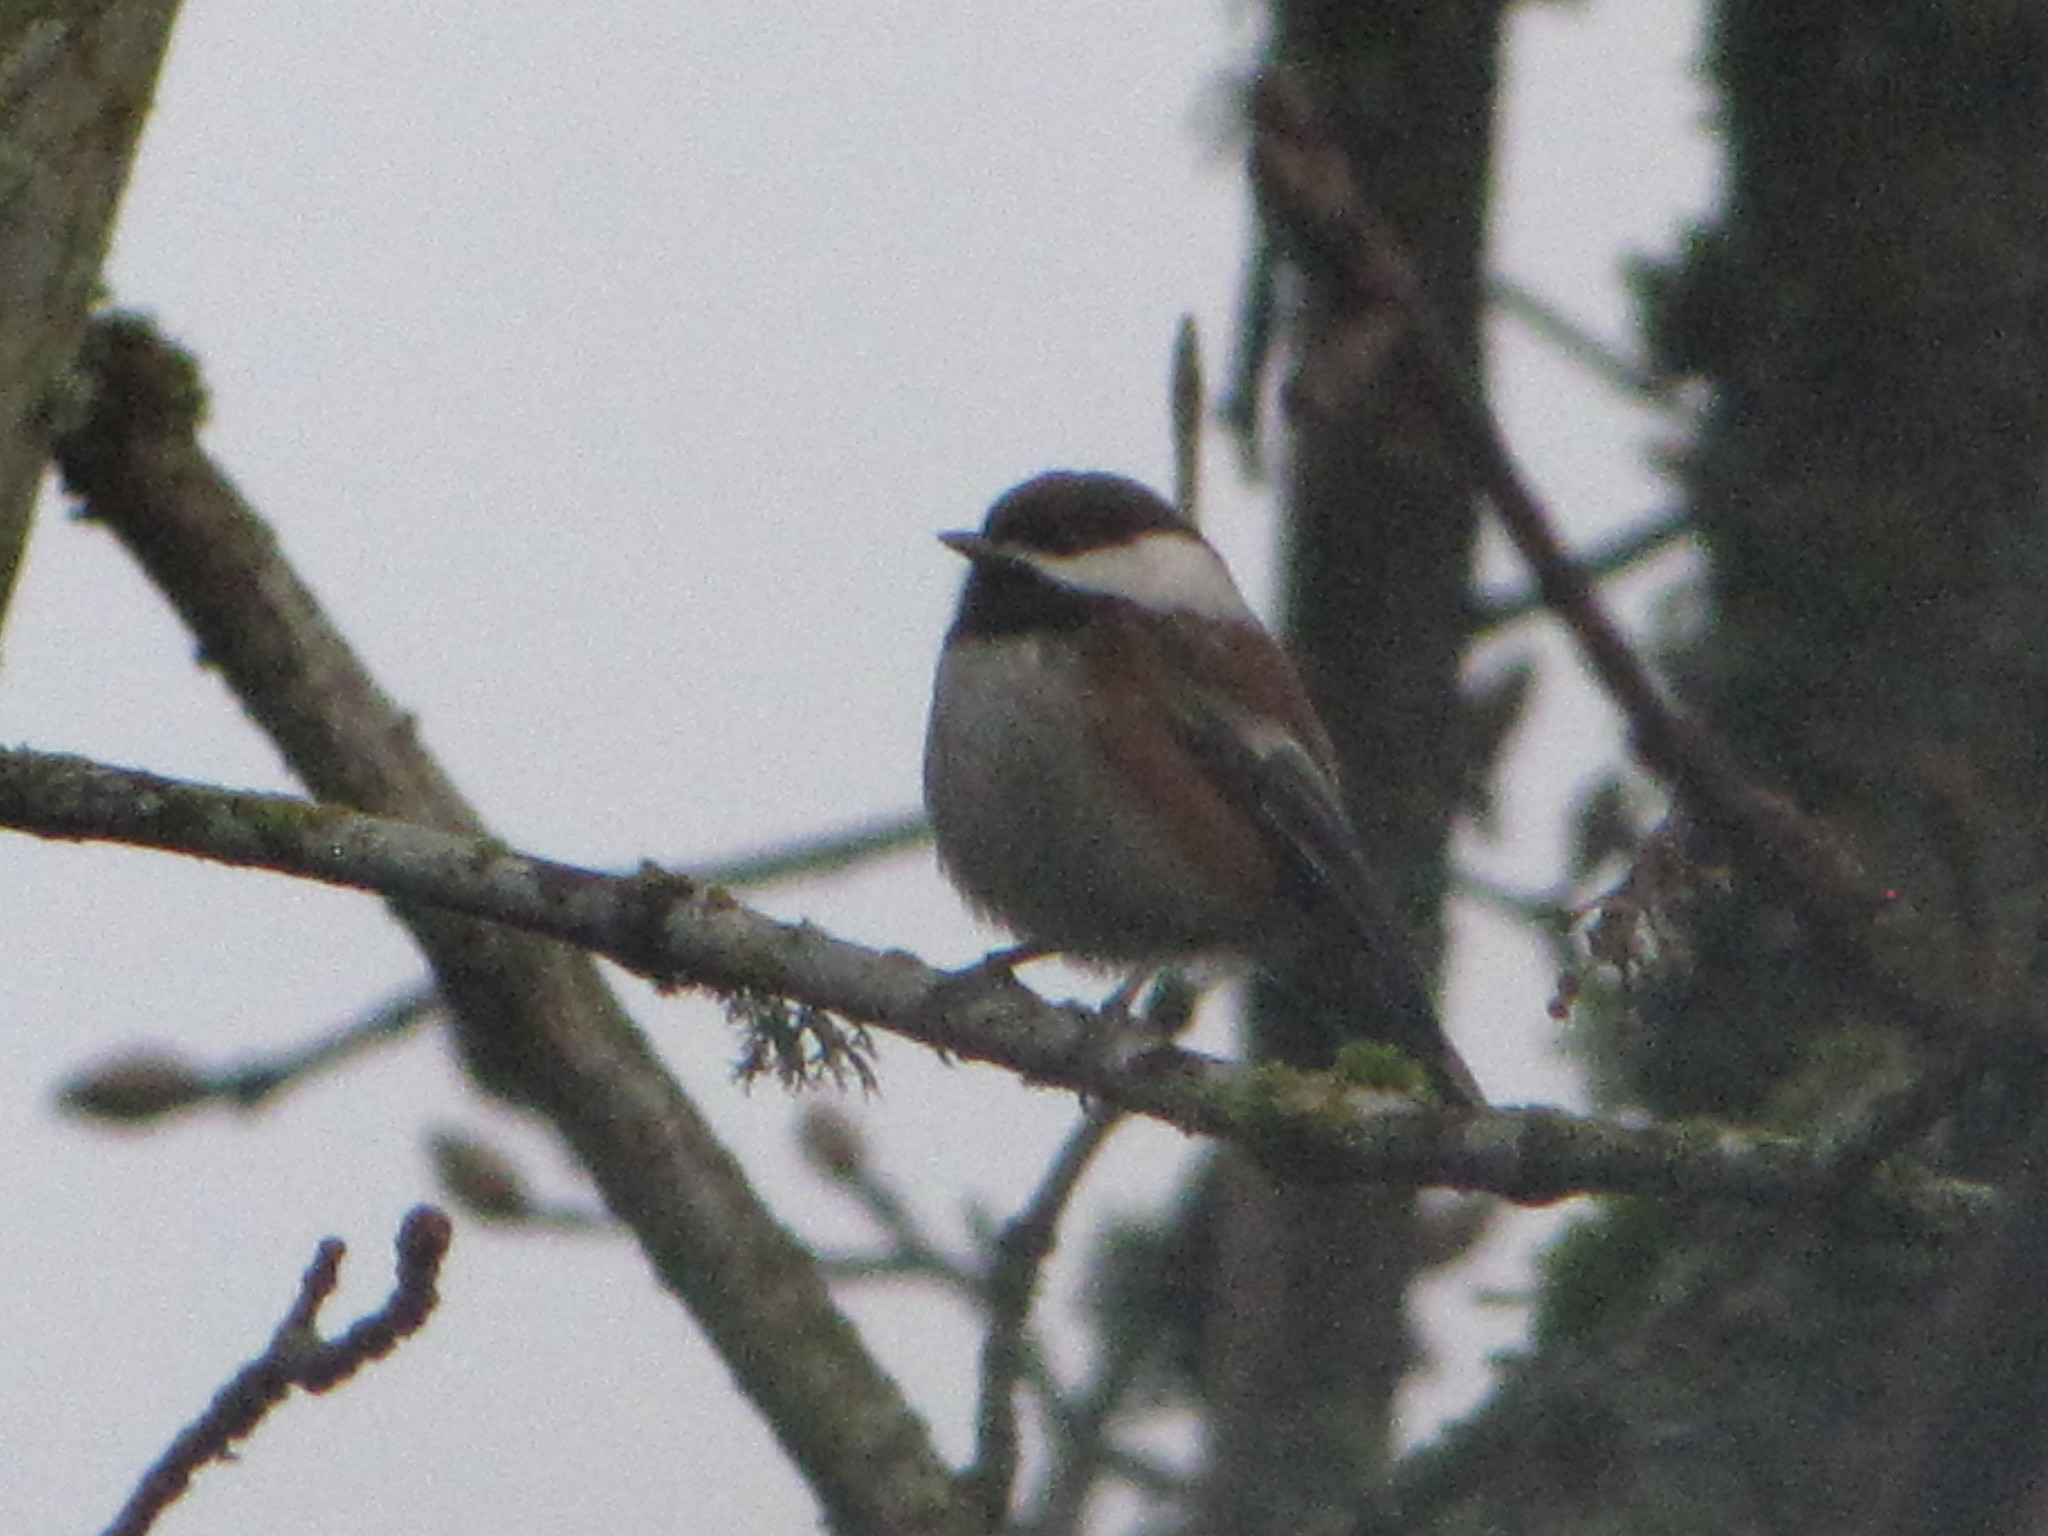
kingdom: Animalia
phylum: Chordata
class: Aves
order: Passeriformes
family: Paridae
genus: Poecile
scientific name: Poecile rufescens
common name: Chestnut-backed chickadee
